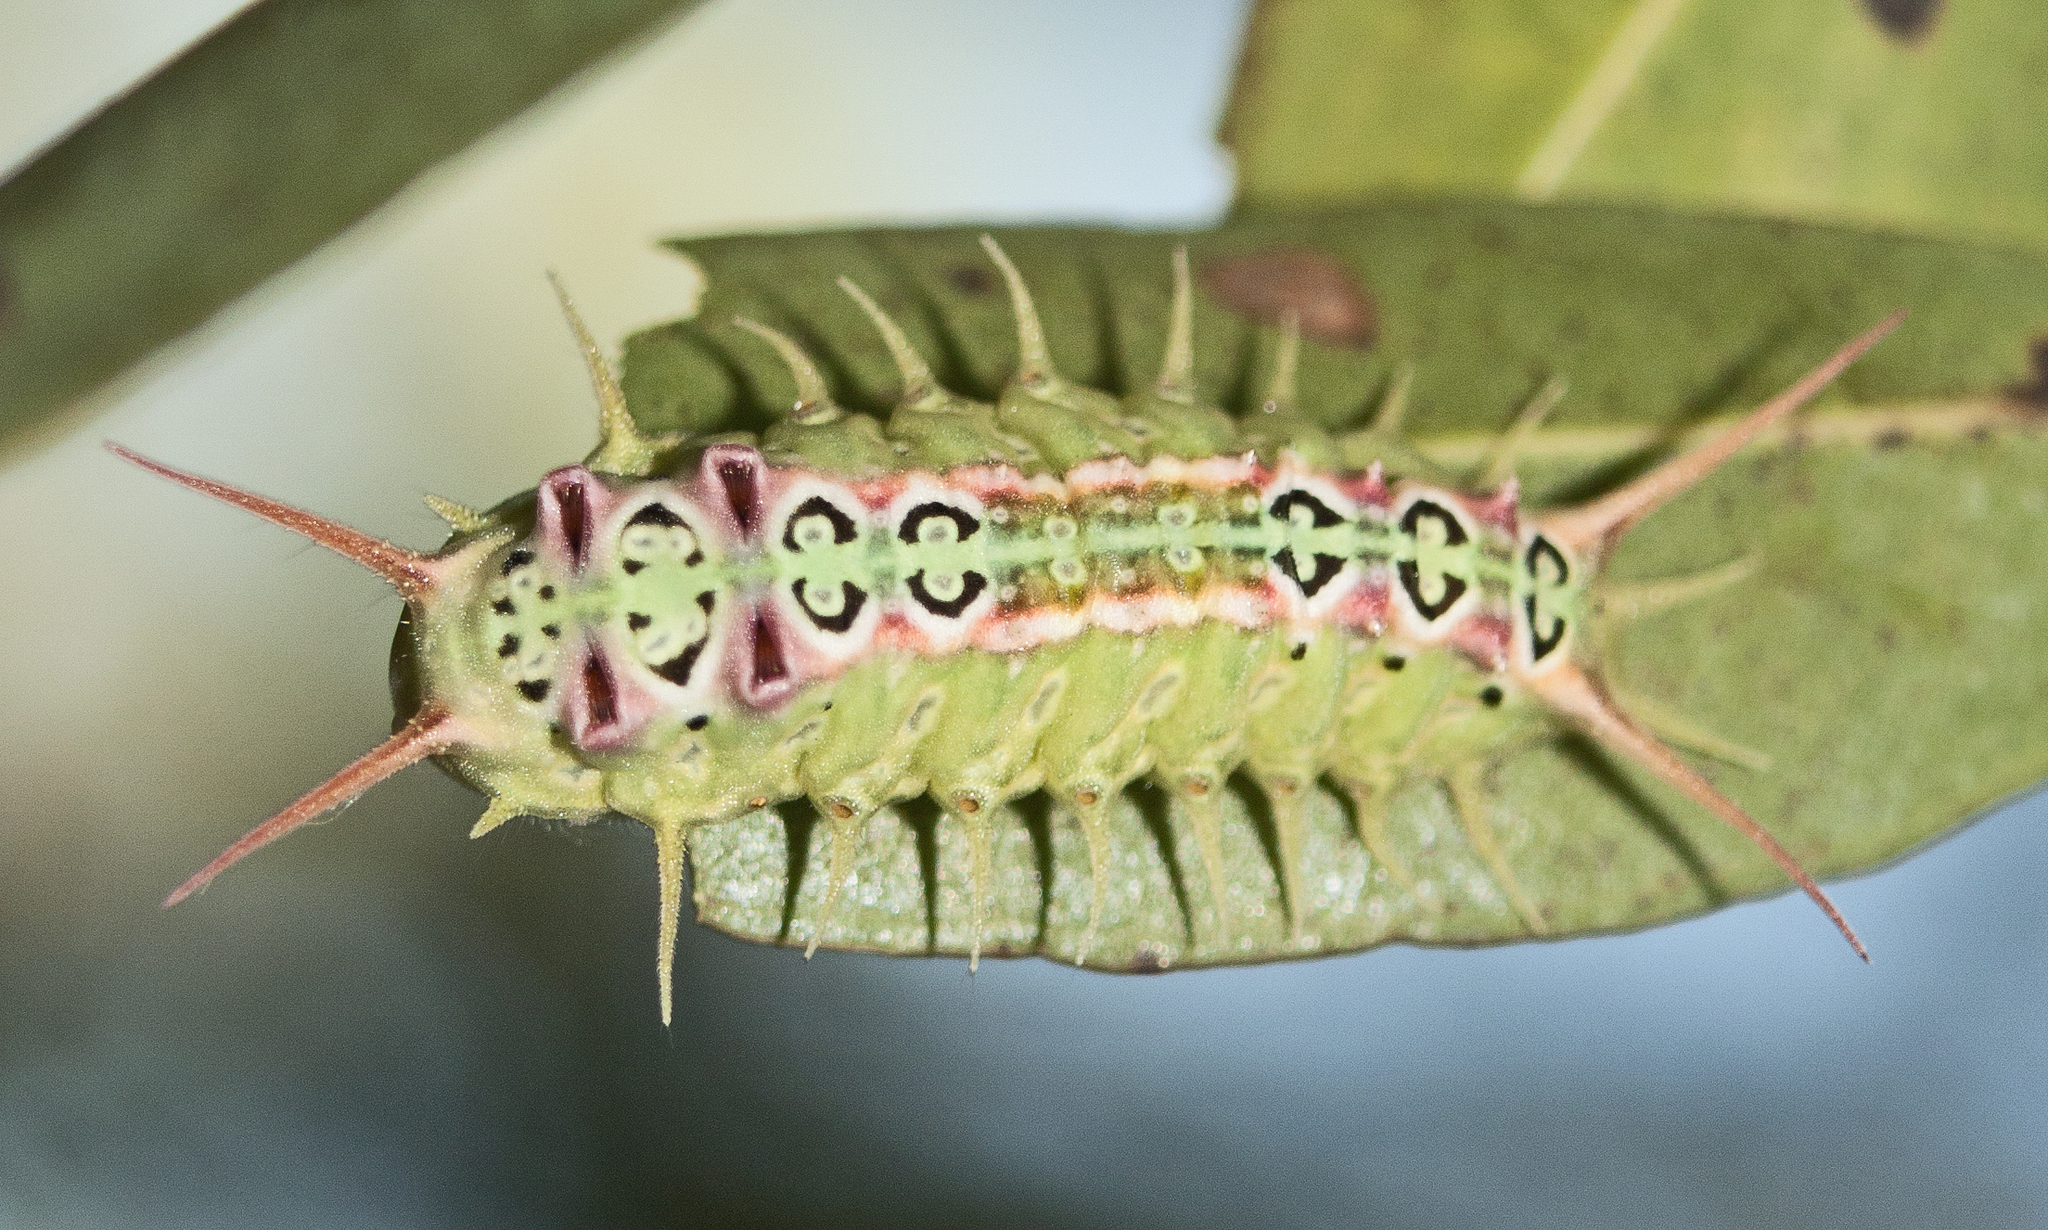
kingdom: Animalia
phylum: Arthropoda
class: Insecta
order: Lepidoptera
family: Limacodidae
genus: Doratifera
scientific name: Doratifera quadriguttata
